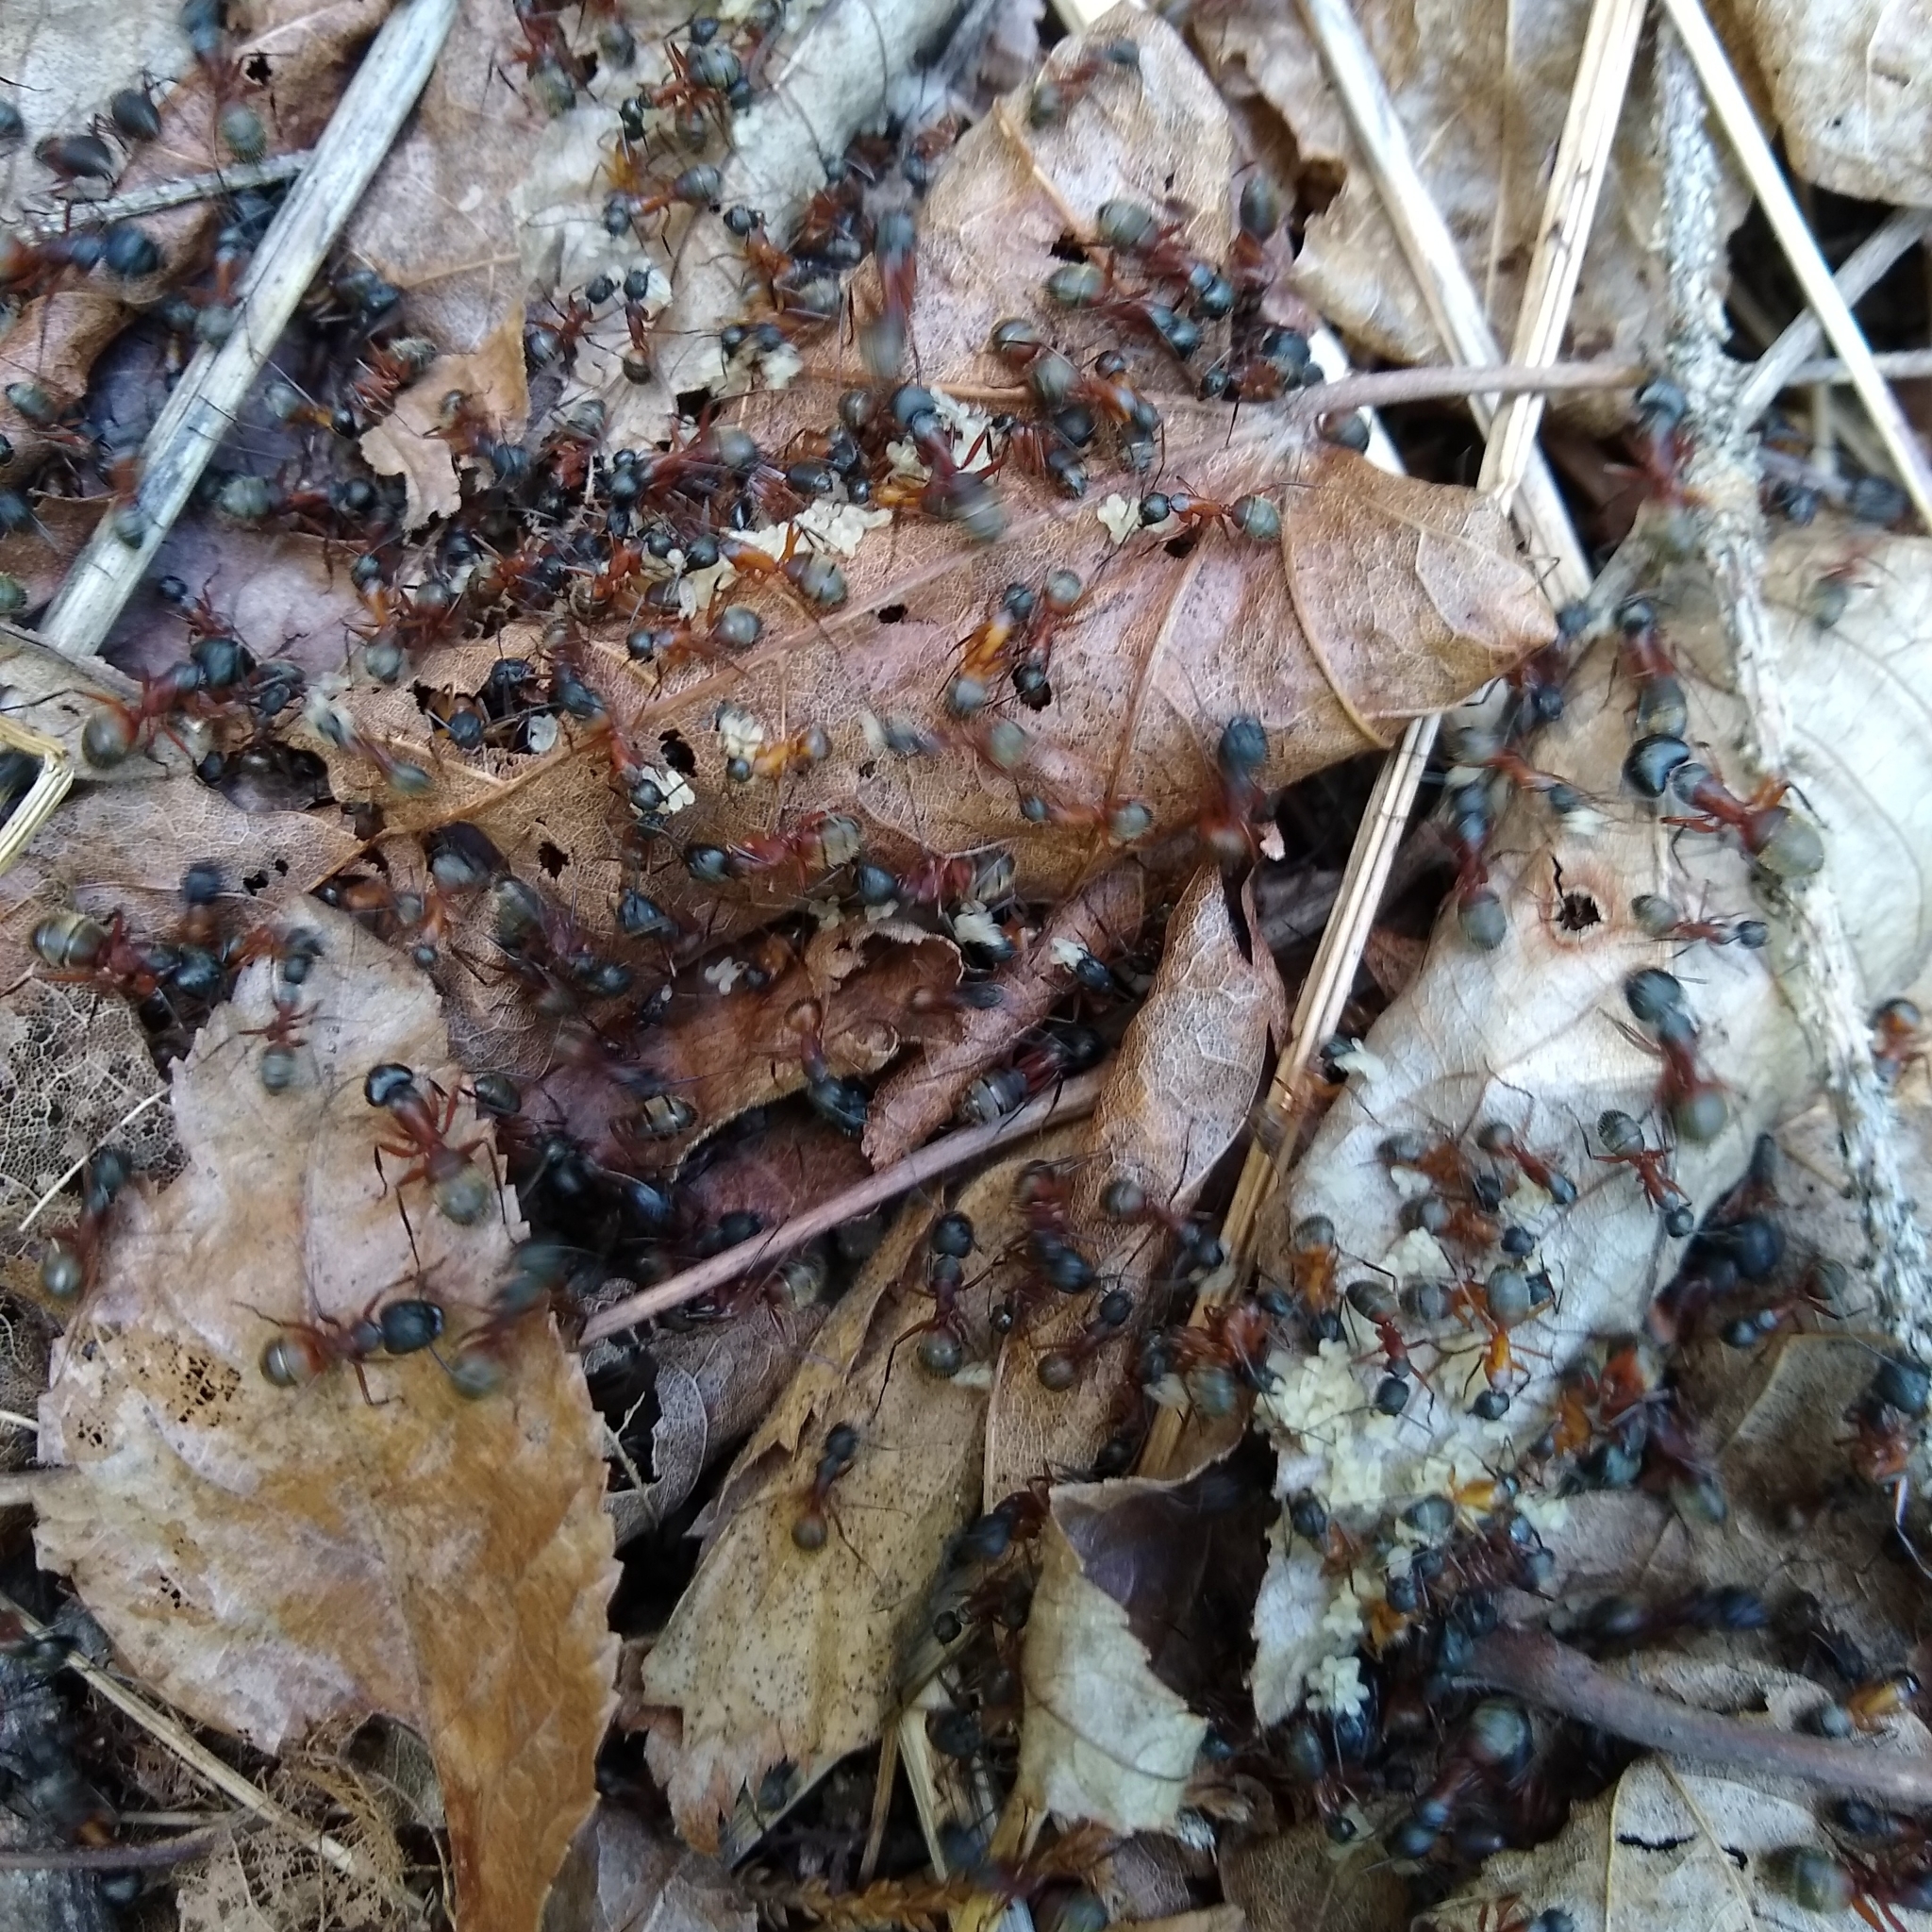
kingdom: Animalia
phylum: Arthropoda
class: Insecta
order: Hymenoptera
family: Formicidae
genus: Camponotus
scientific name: Camponotus chromaiodes
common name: Red carpenter ant
